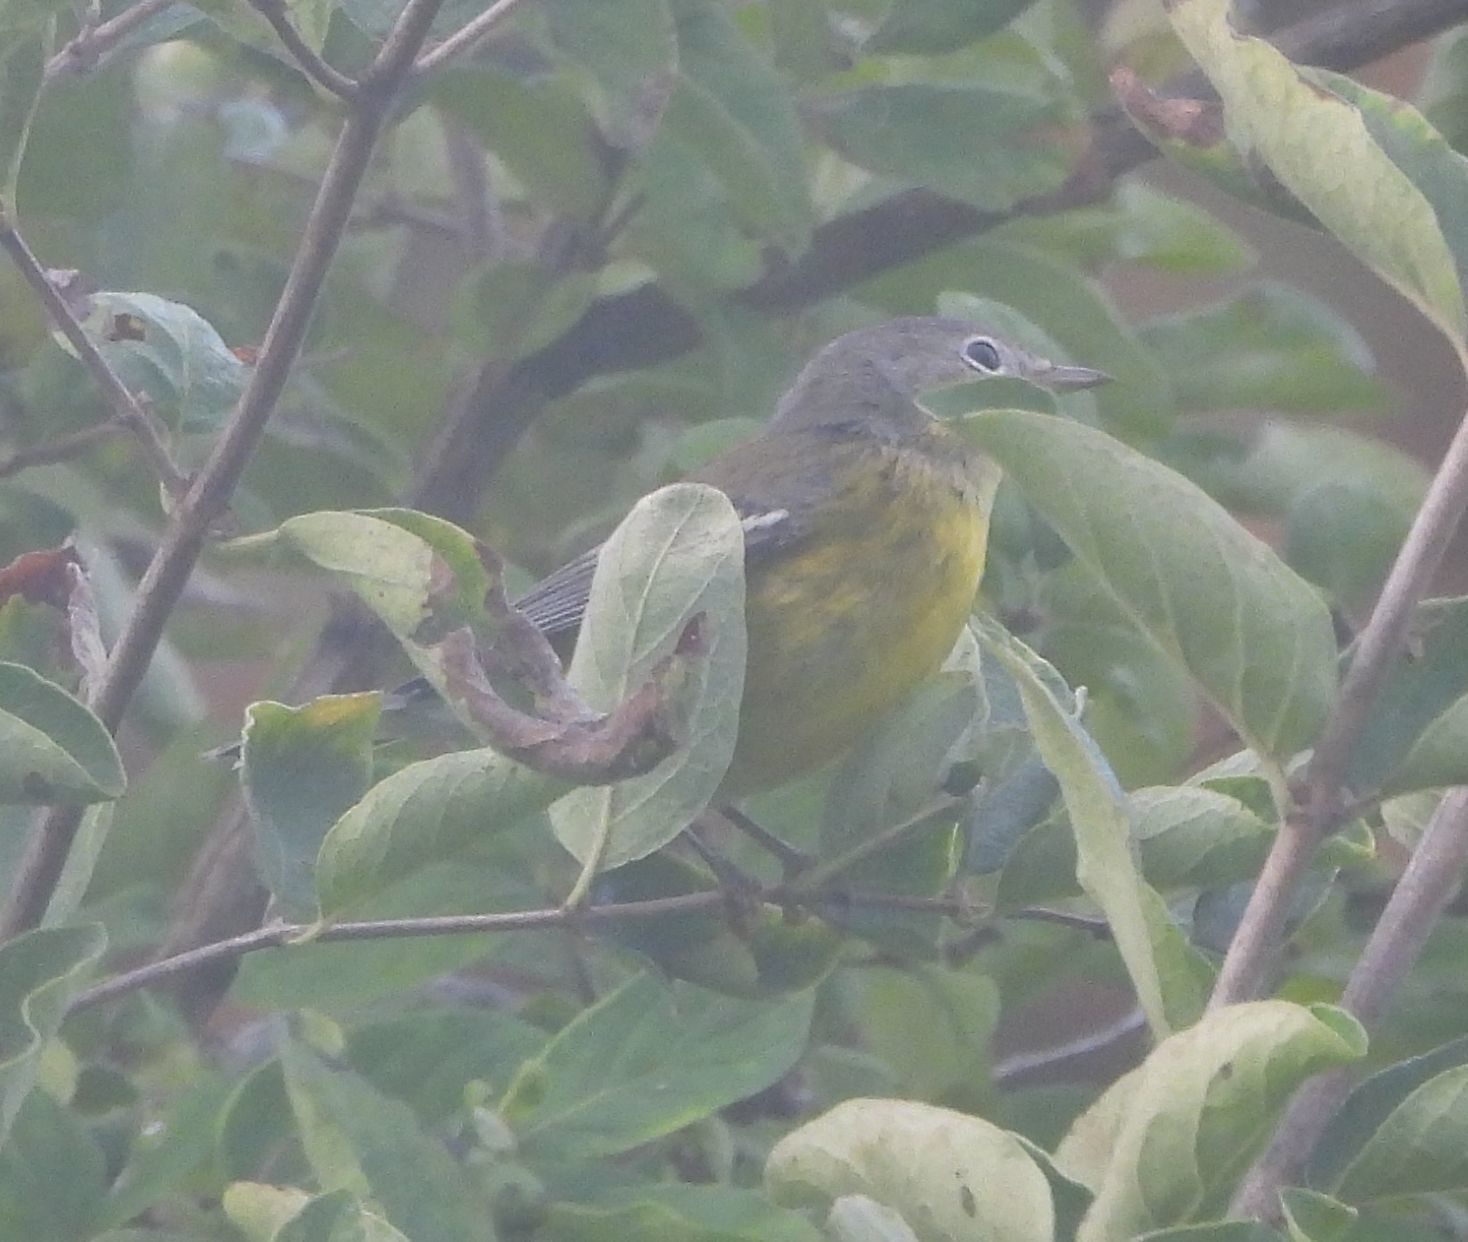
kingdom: Animalia
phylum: Chordata
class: Aves
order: Passeriformes
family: Parulidae
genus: Setophaga
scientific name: Setophaga magnolia
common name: Magnolia warbler
